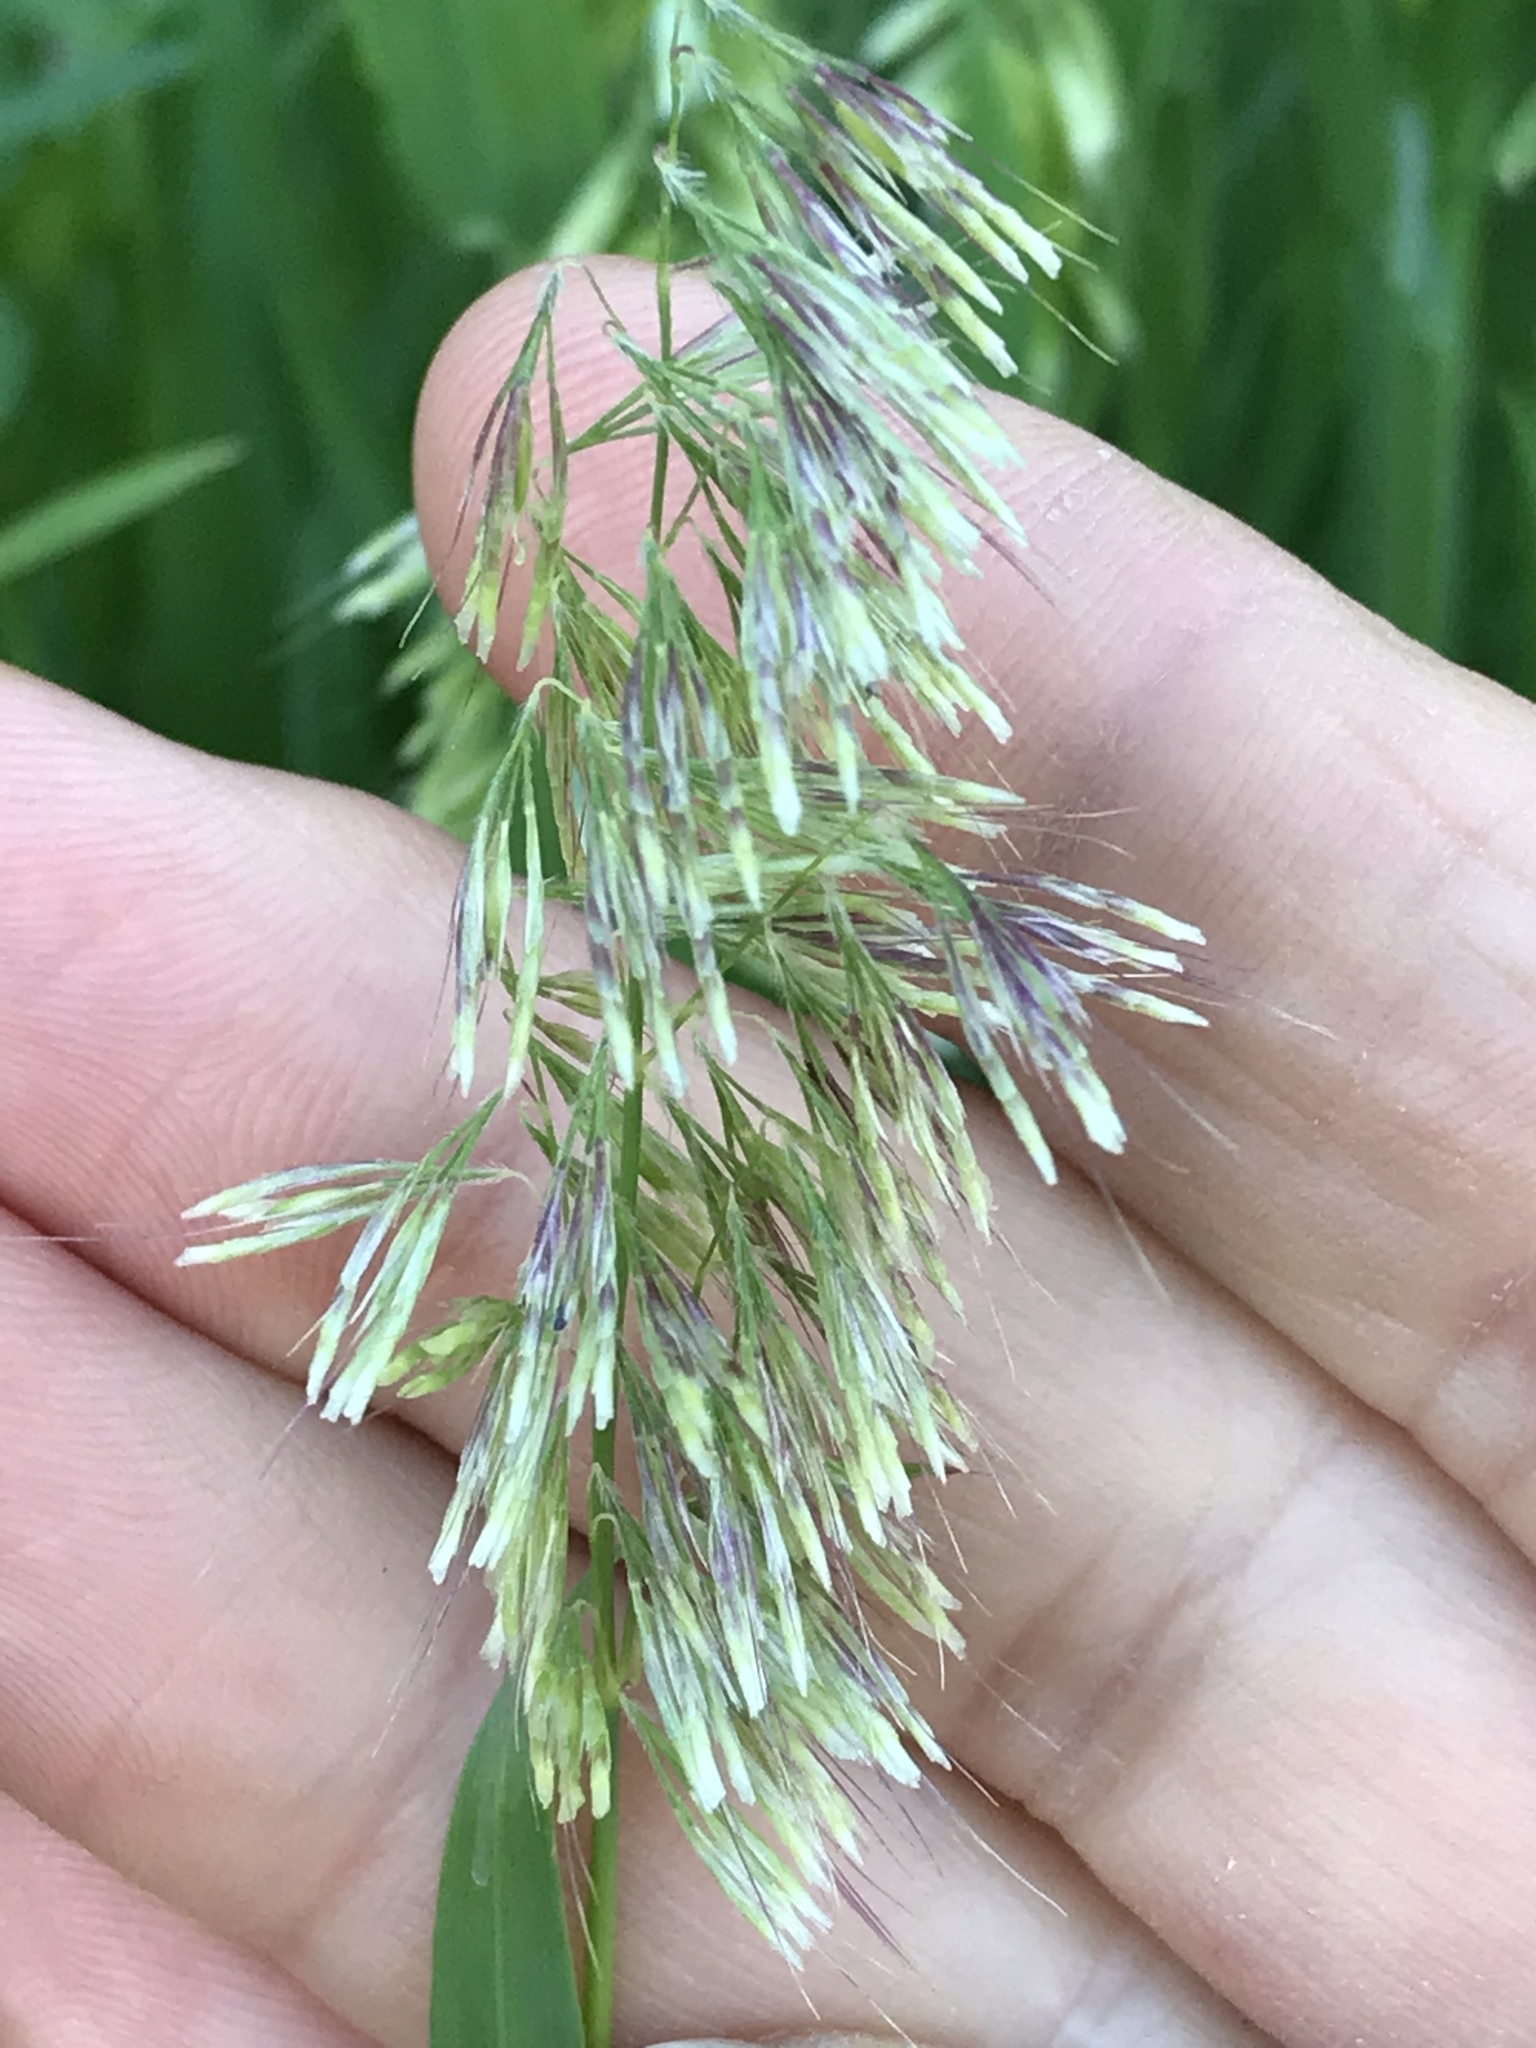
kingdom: Plantae
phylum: Tracheophyta
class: Liliopsida
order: Poales
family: Poaceae
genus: Lamarckia
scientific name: Lamarckia aurea
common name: Golden dog's-tail
